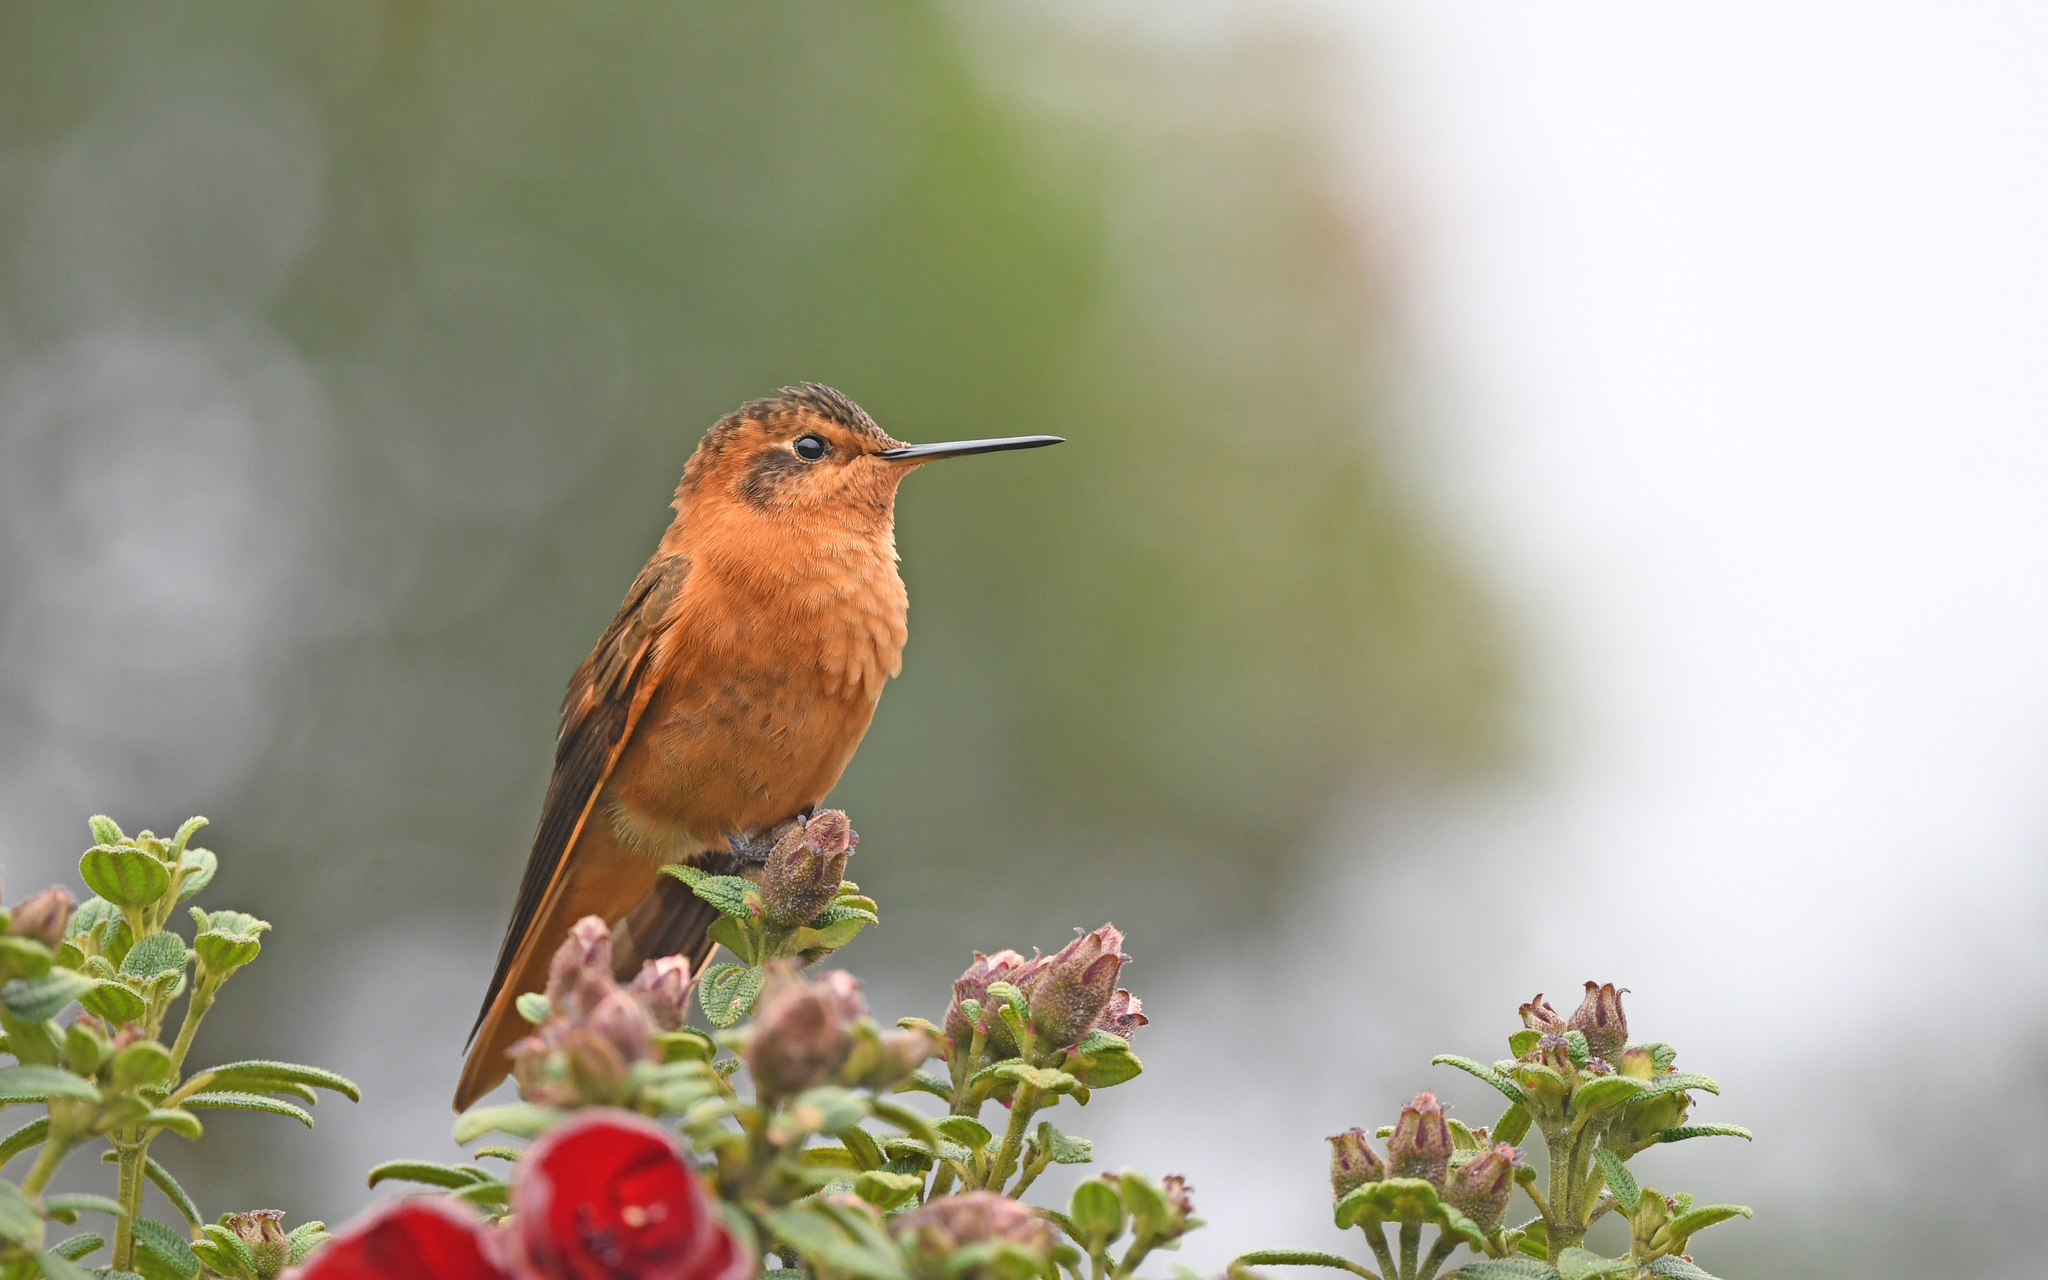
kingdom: Animalia
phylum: Chordata
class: Aves
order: Apodiformes
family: Trochilidae
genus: Aglaeactis
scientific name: Aglaeactis cupripennis
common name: Shining sunbeam
